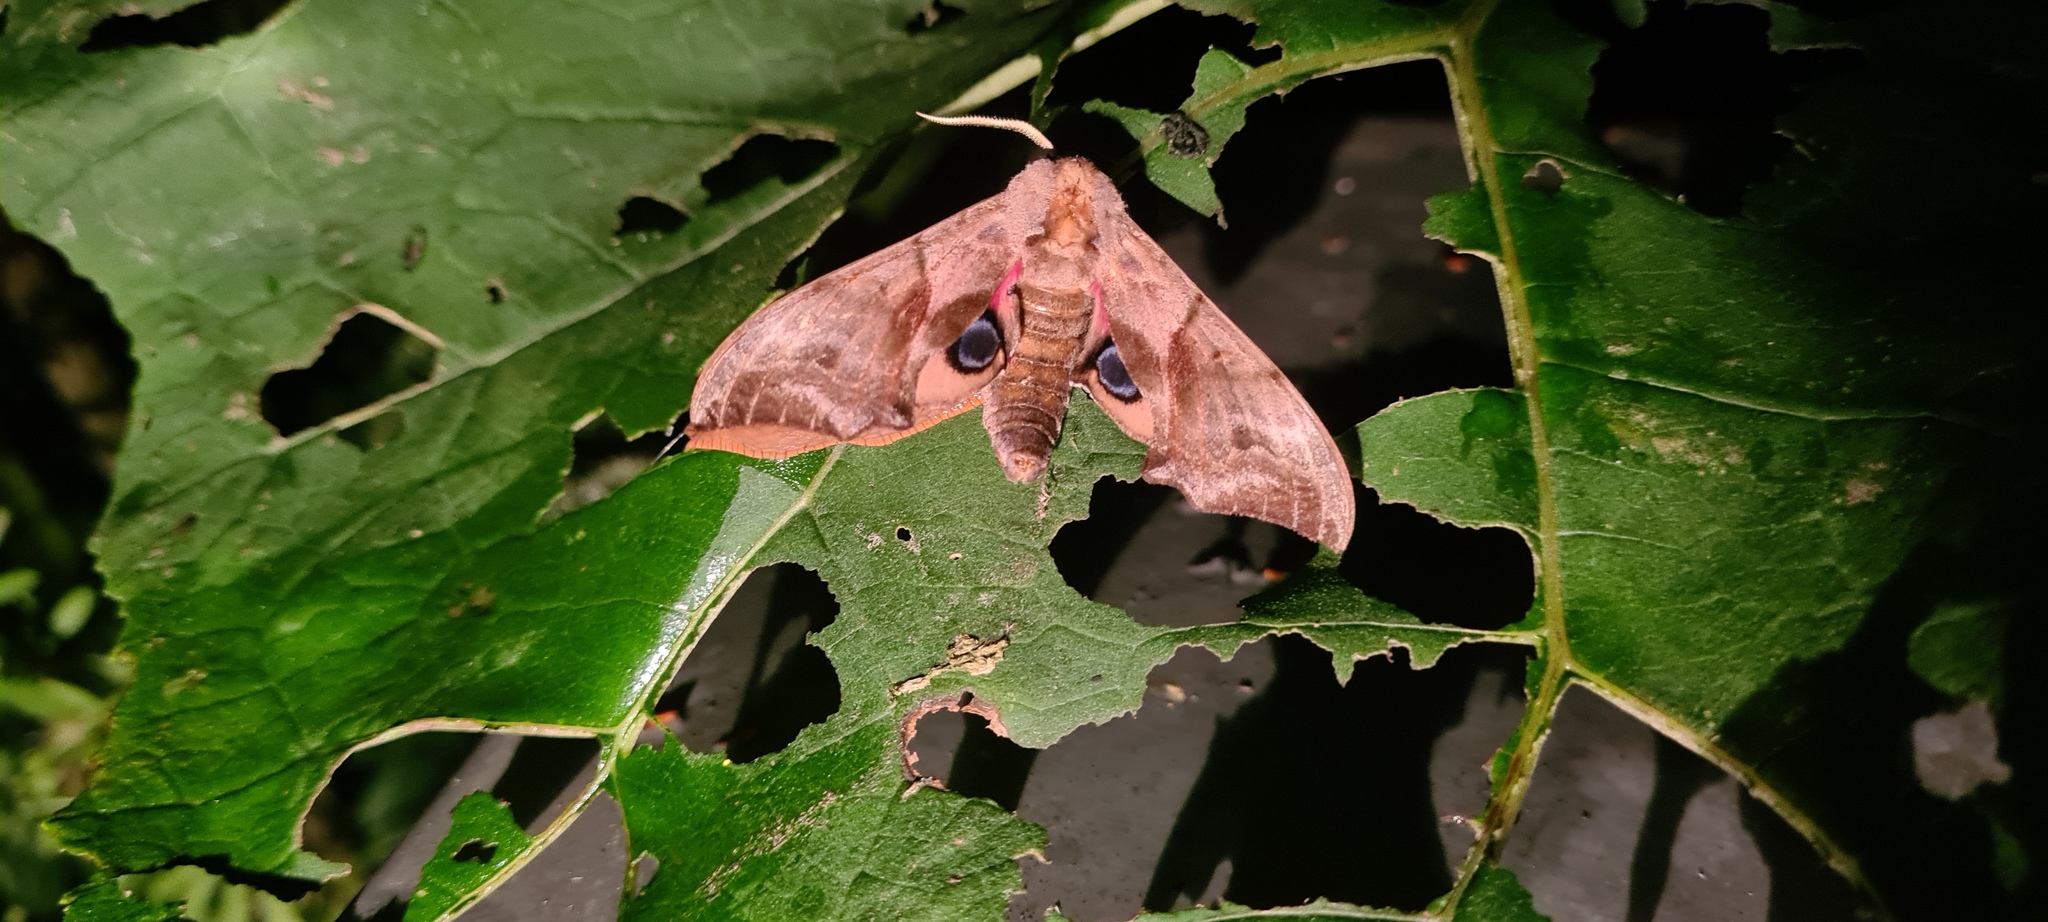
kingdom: Animalia
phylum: Arthropoda
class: Insecta
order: Lepidoptera
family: Sphingidae
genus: Smerinthus
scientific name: Smerinthus ocellata
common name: Eyed hawk-moth
